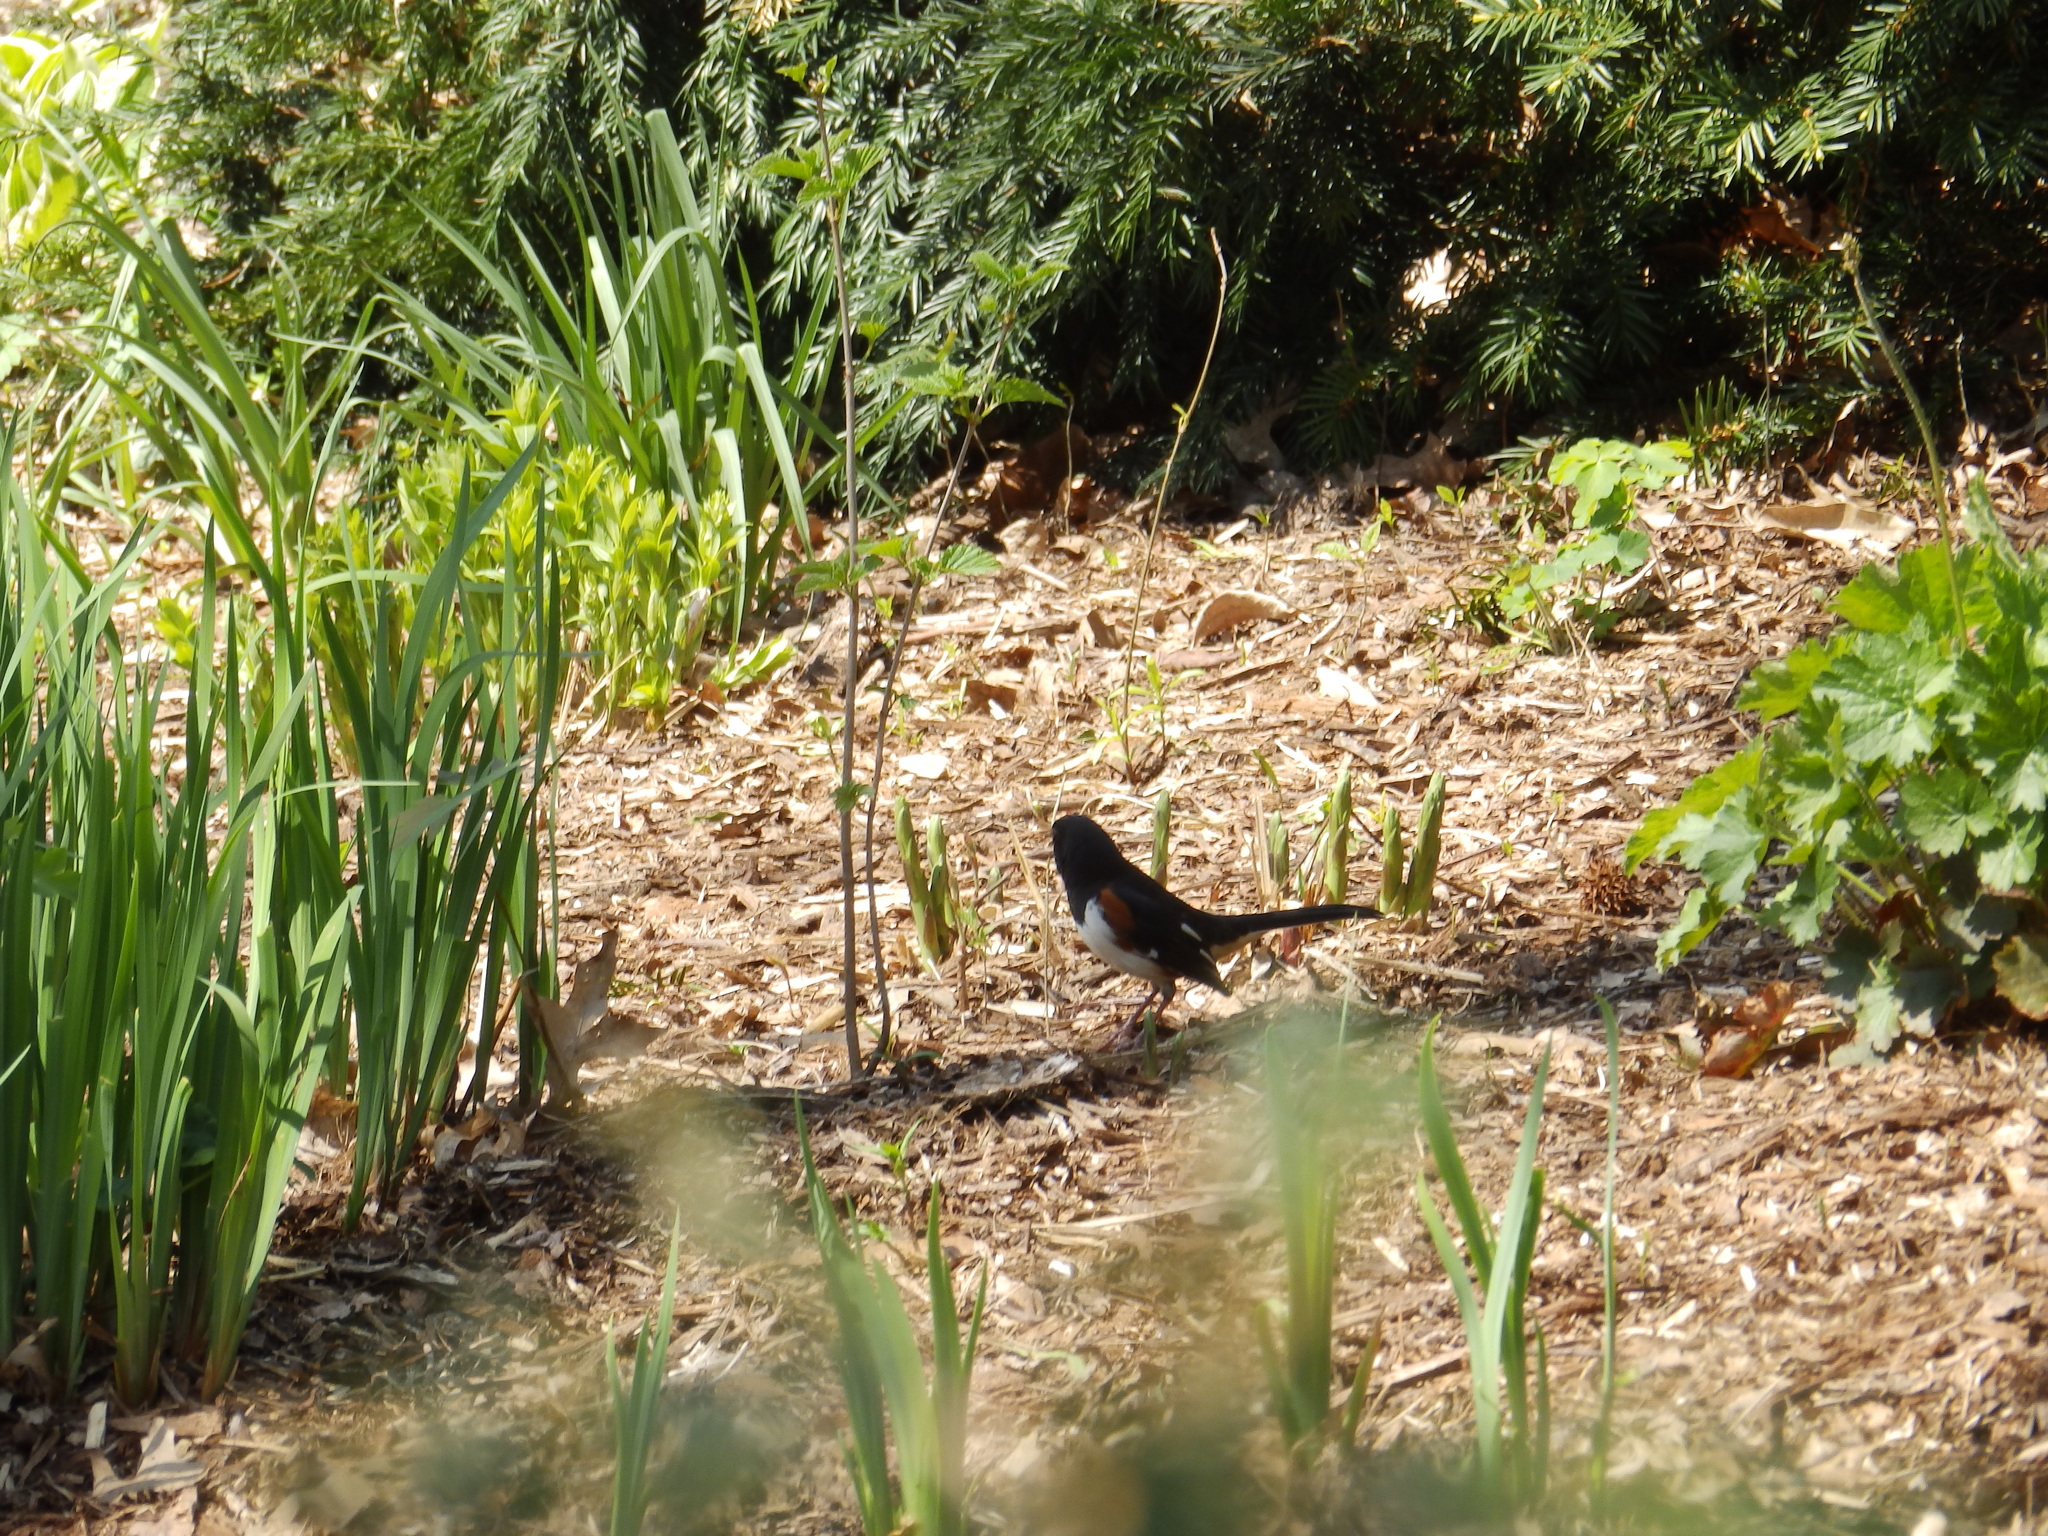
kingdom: Animalia
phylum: Chordata
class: Aves
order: Passeriformes
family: Passerellidae
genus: Pipilo
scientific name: Pipilo erythrophthalmus
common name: Eastern towhee
